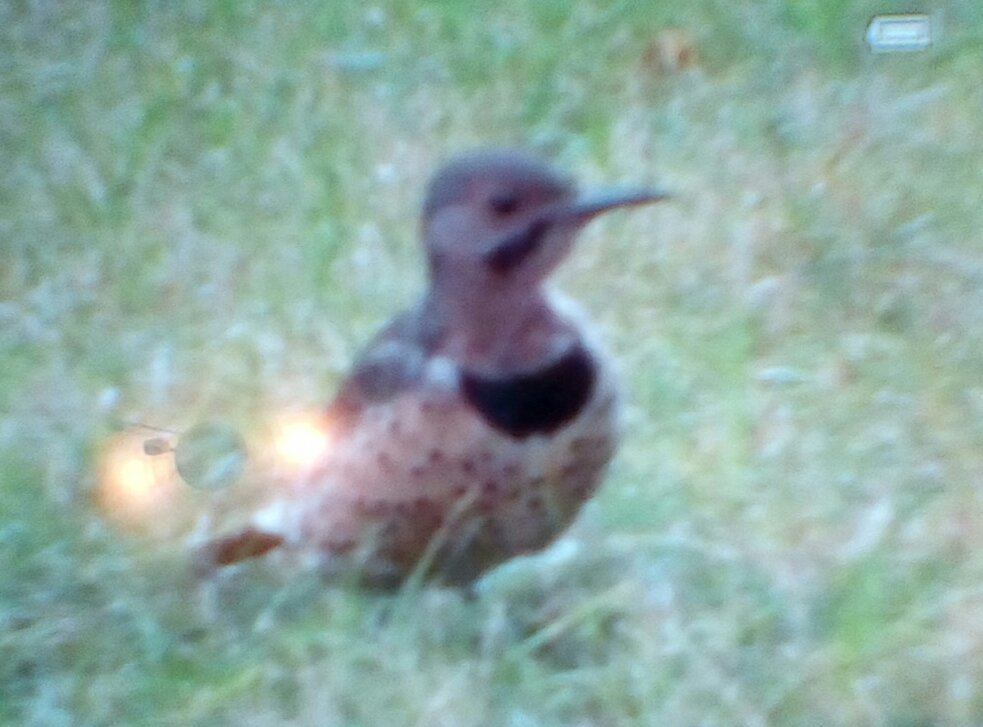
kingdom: Animalia
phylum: Chordata
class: Aves
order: Piciformes
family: Picidae
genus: Colaptes
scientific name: Colaptes auratus
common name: Northern flicker
